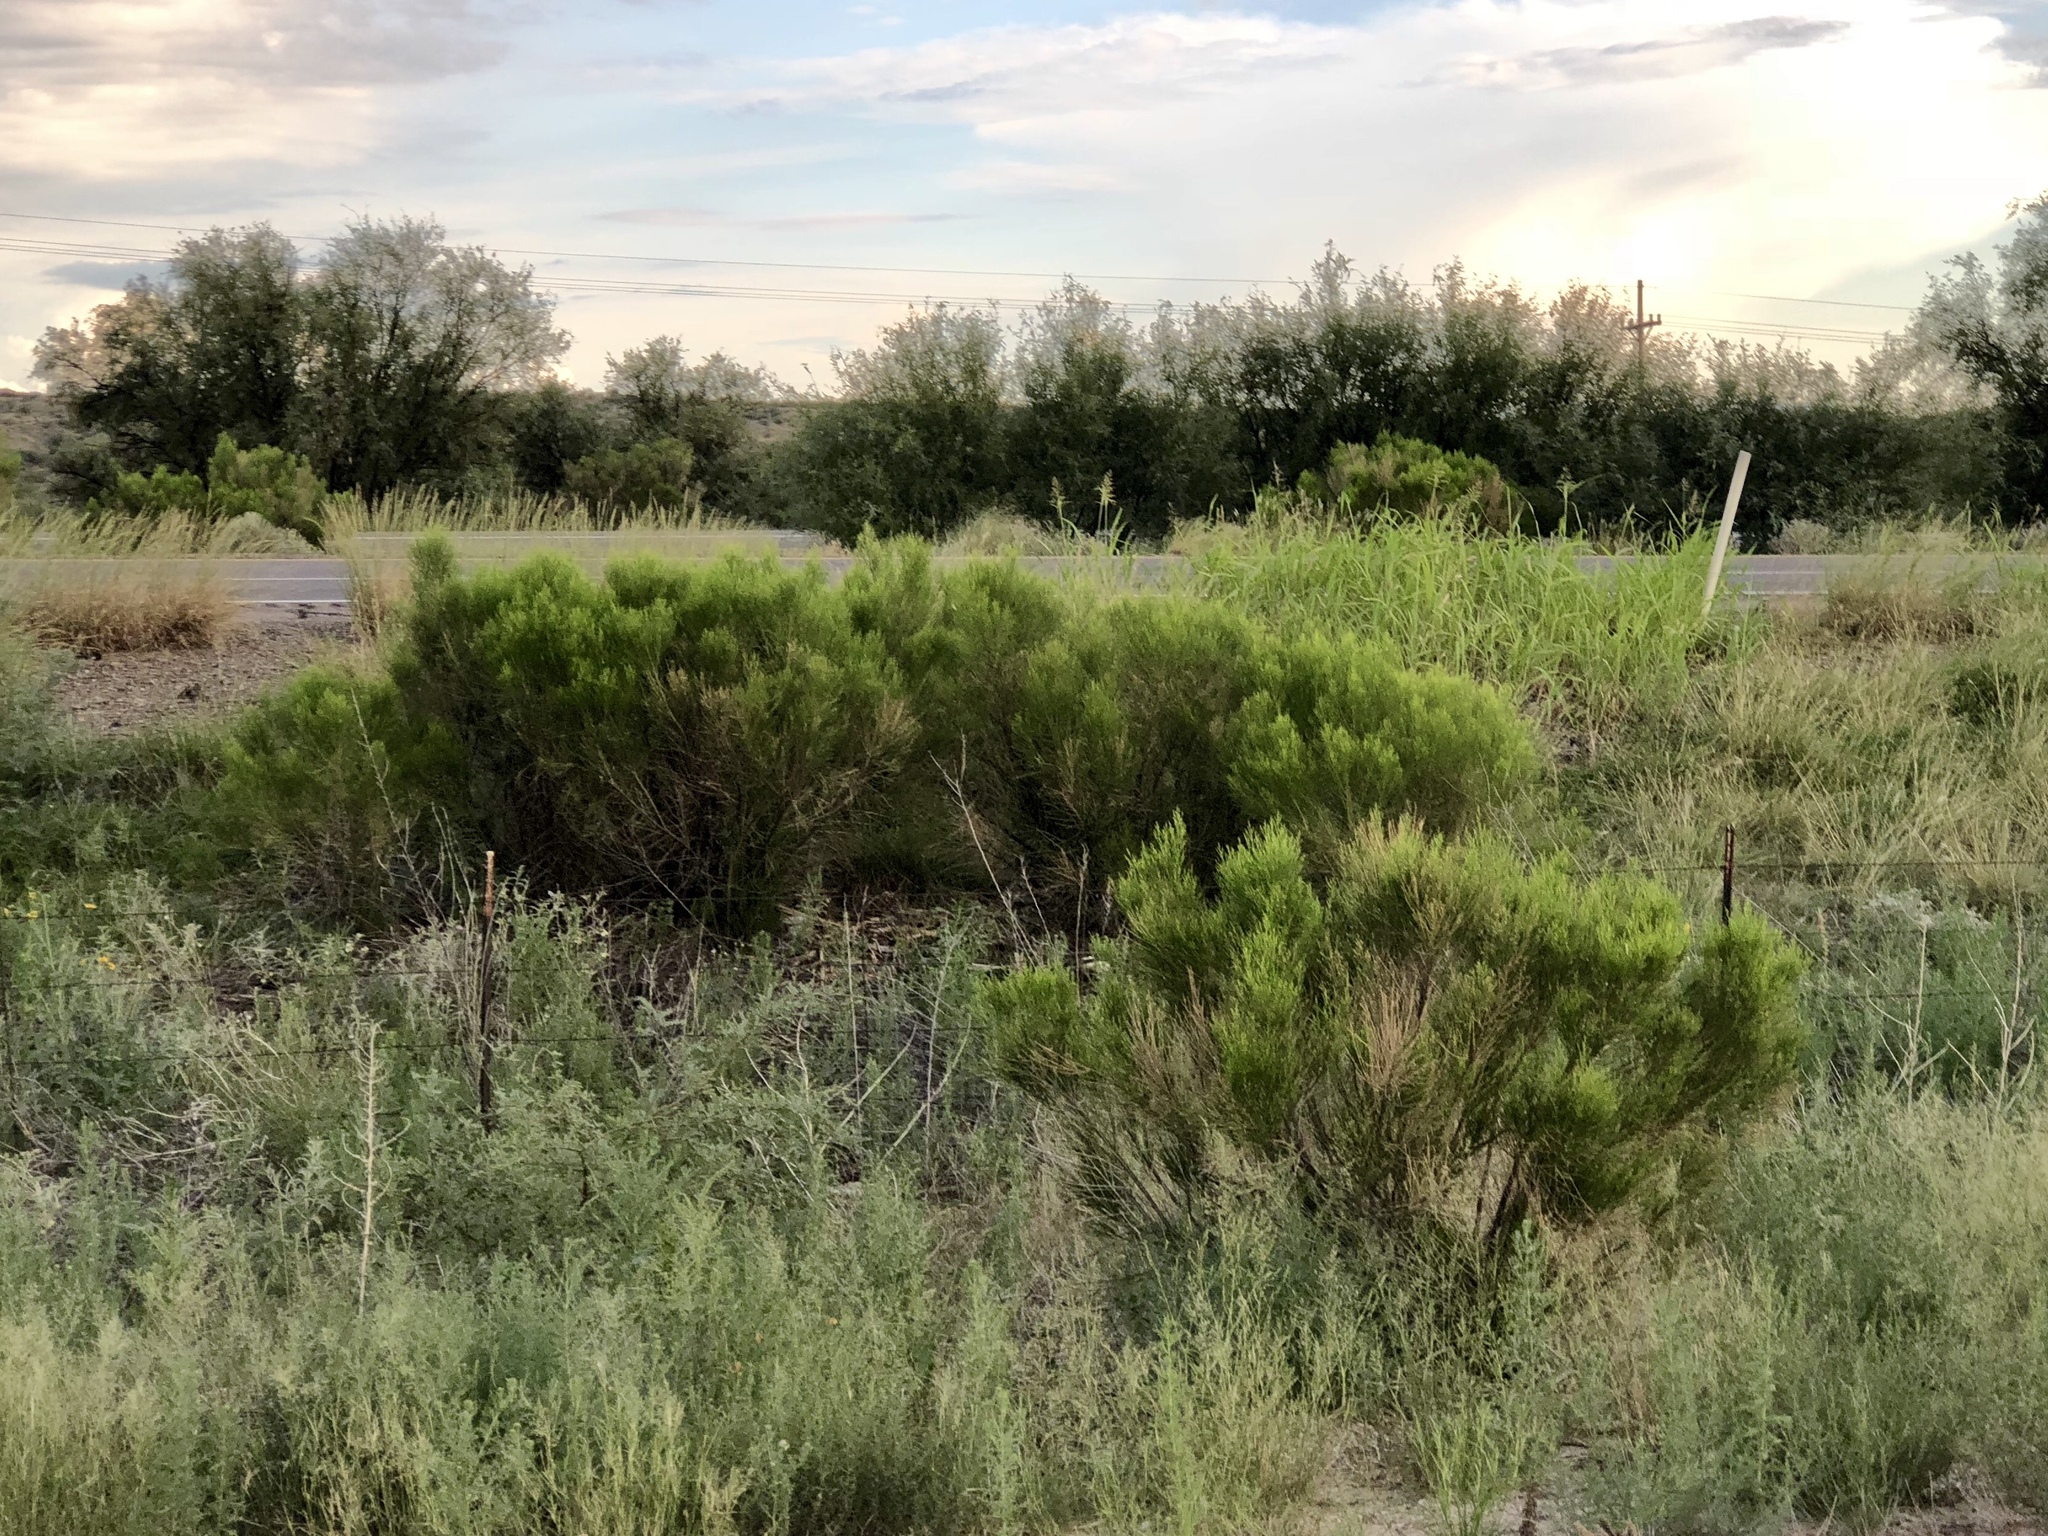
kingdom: Plantae
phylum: Tracheophyta
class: Magnoliopsida
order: Asterales
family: Asteraceae
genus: Baccharis
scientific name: Baccharis sarothroides
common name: Desert-broom
